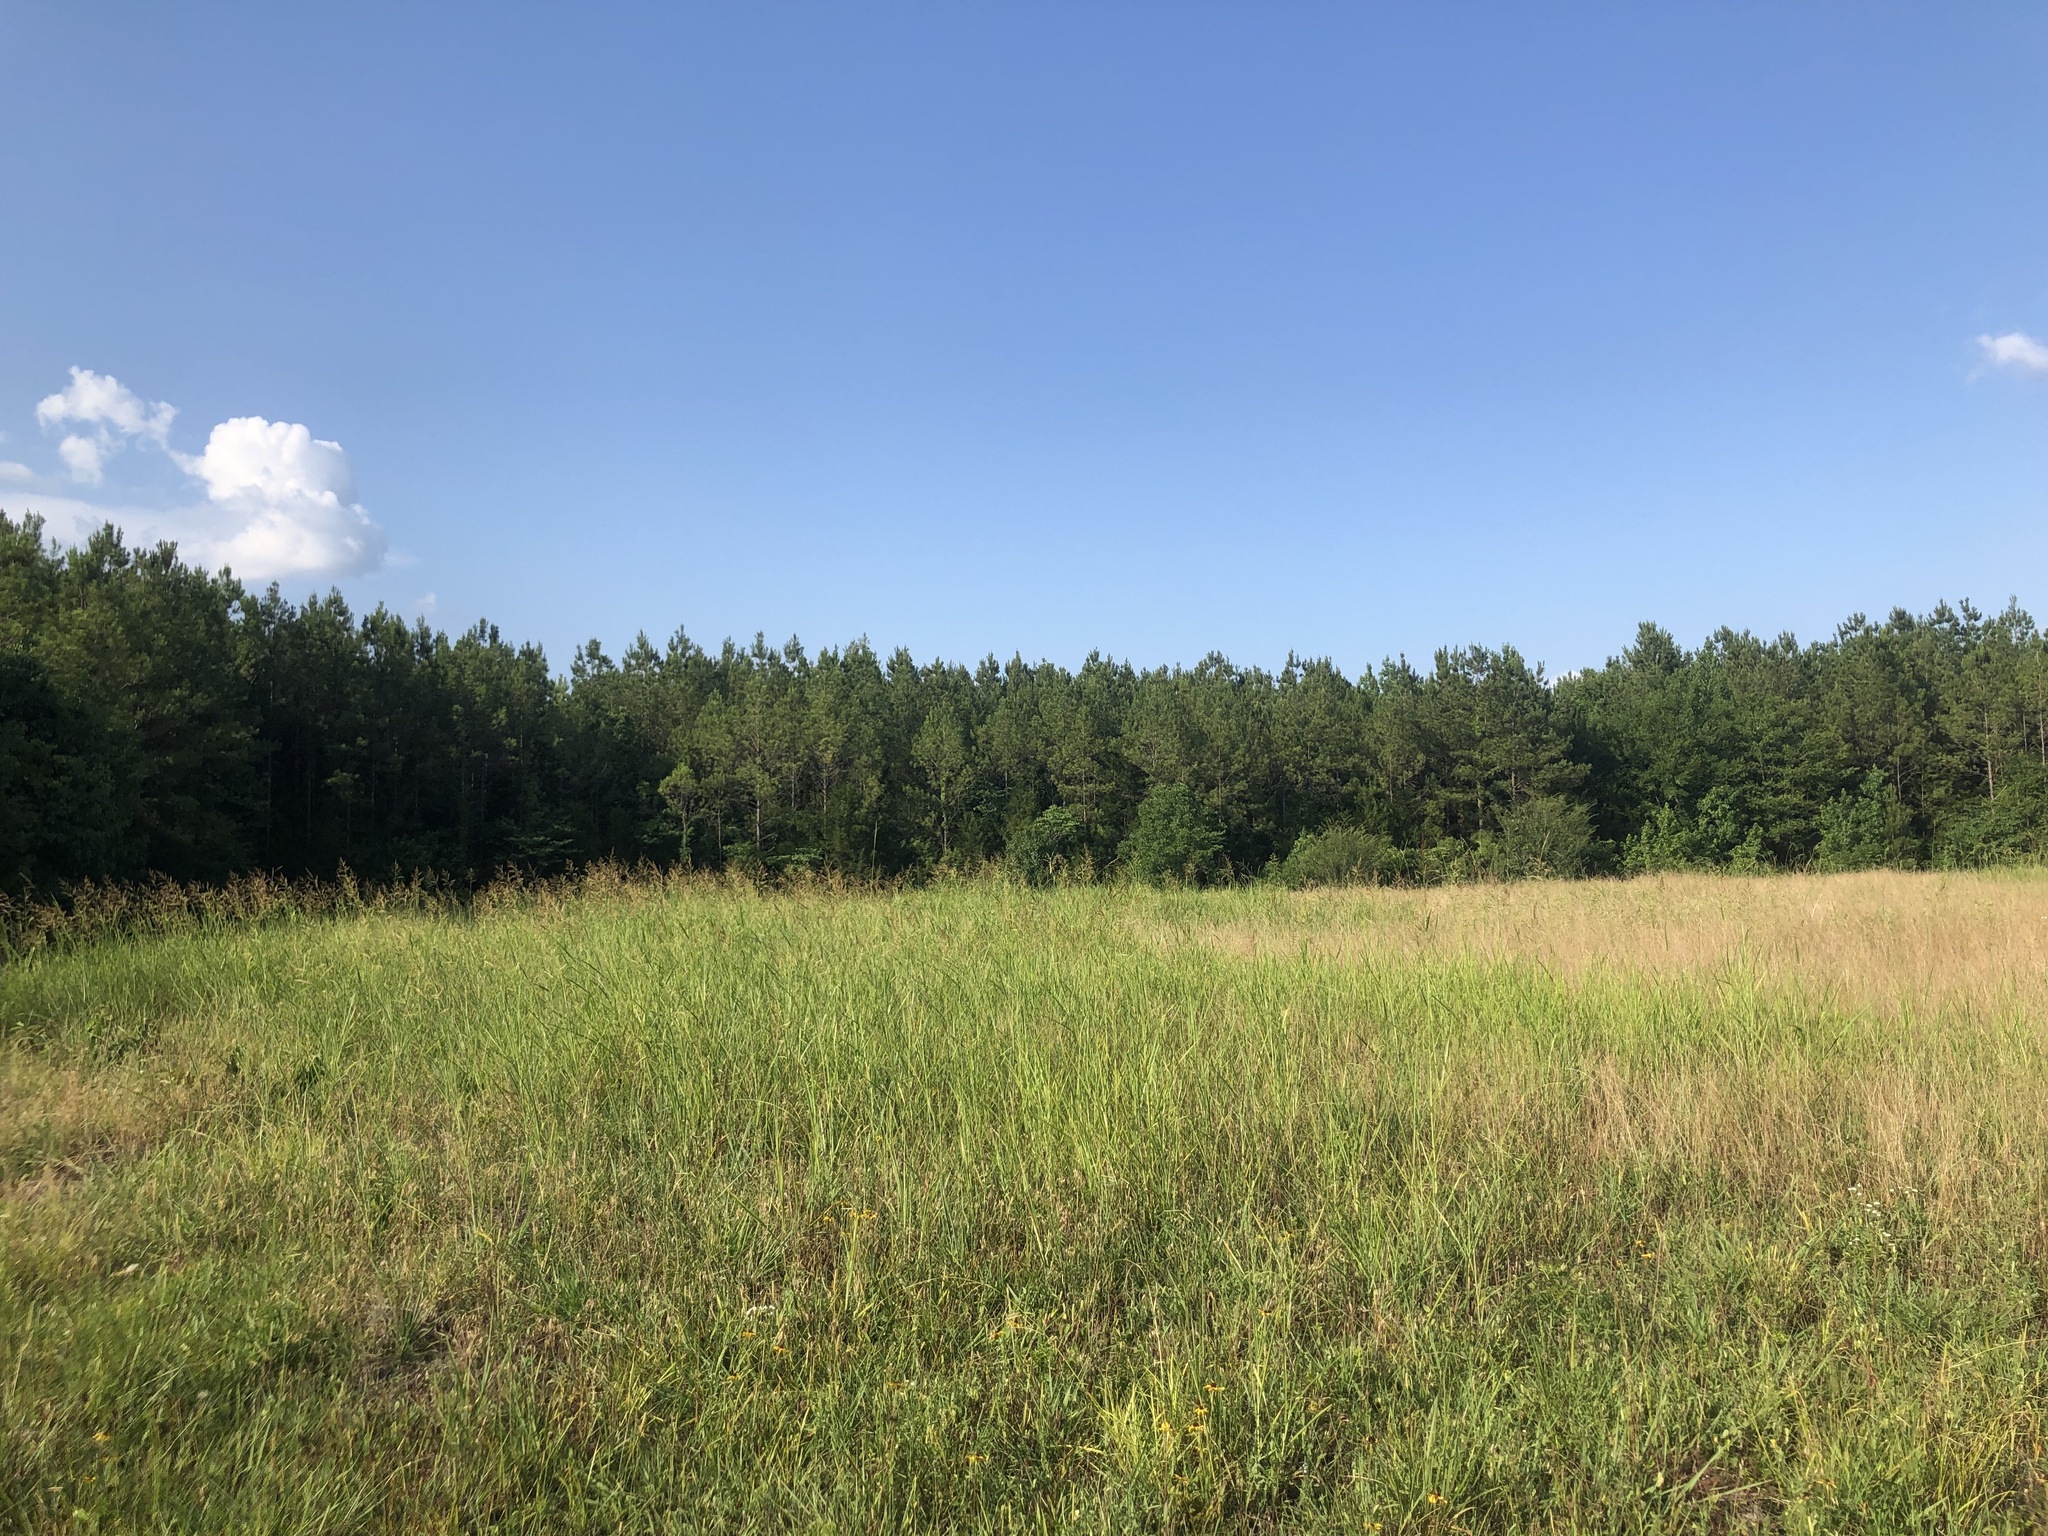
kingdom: Plantae
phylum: Tracheophyta
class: Liliopsida
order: Poales
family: Poaceae
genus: Lolium
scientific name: Lolium perenne
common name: Perennial ryegrass
